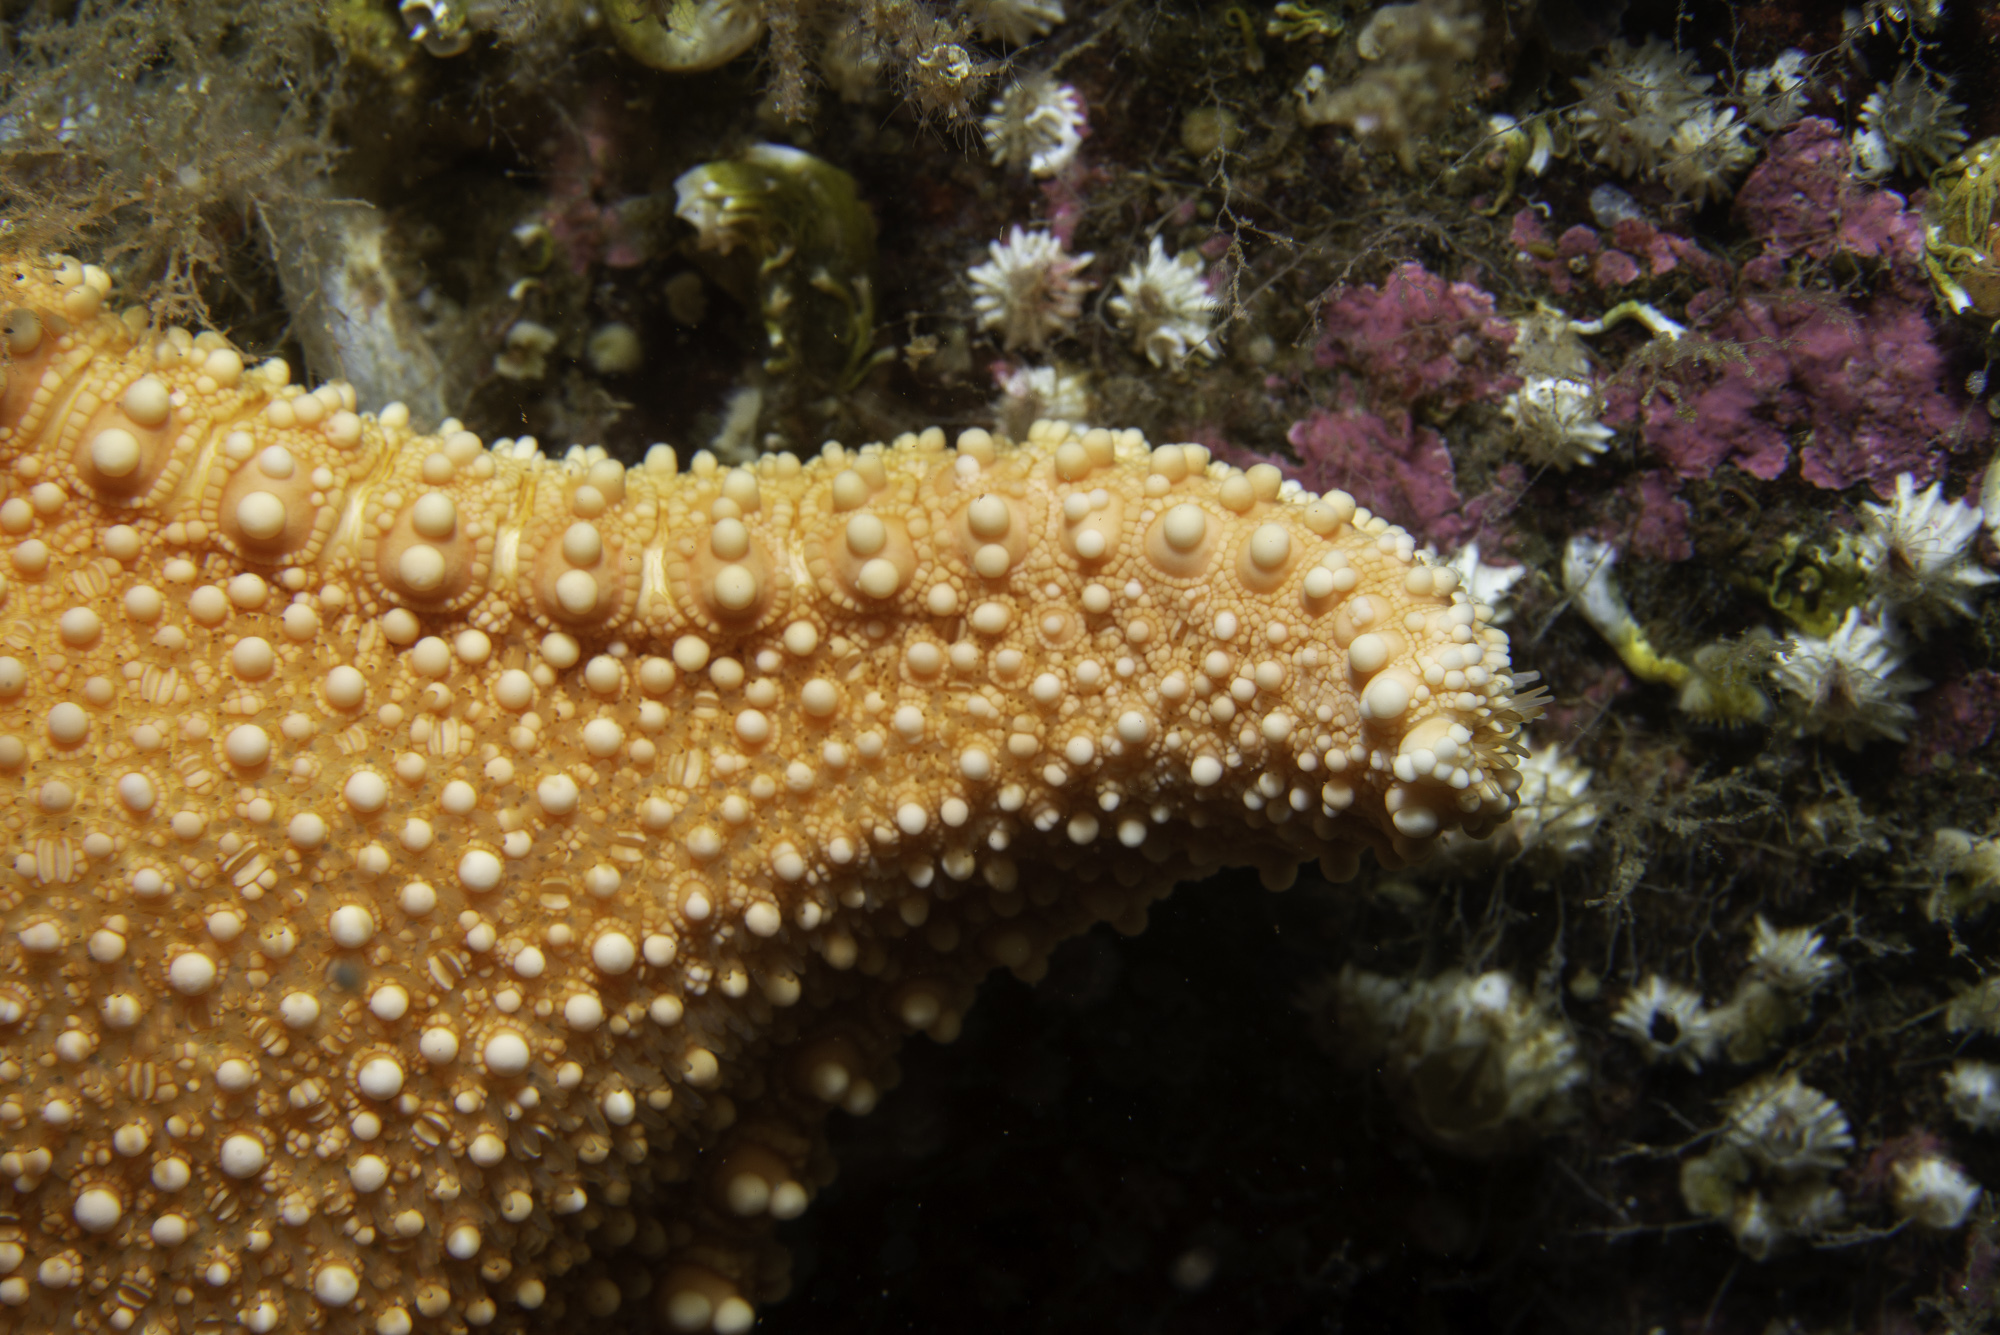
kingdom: Animalia
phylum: Echinodermata
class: Asteroidea
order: Valvatida
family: Goniasteridae
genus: Hippasteria
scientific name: Hippasteria phrygiana
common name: Arctic cushion star
